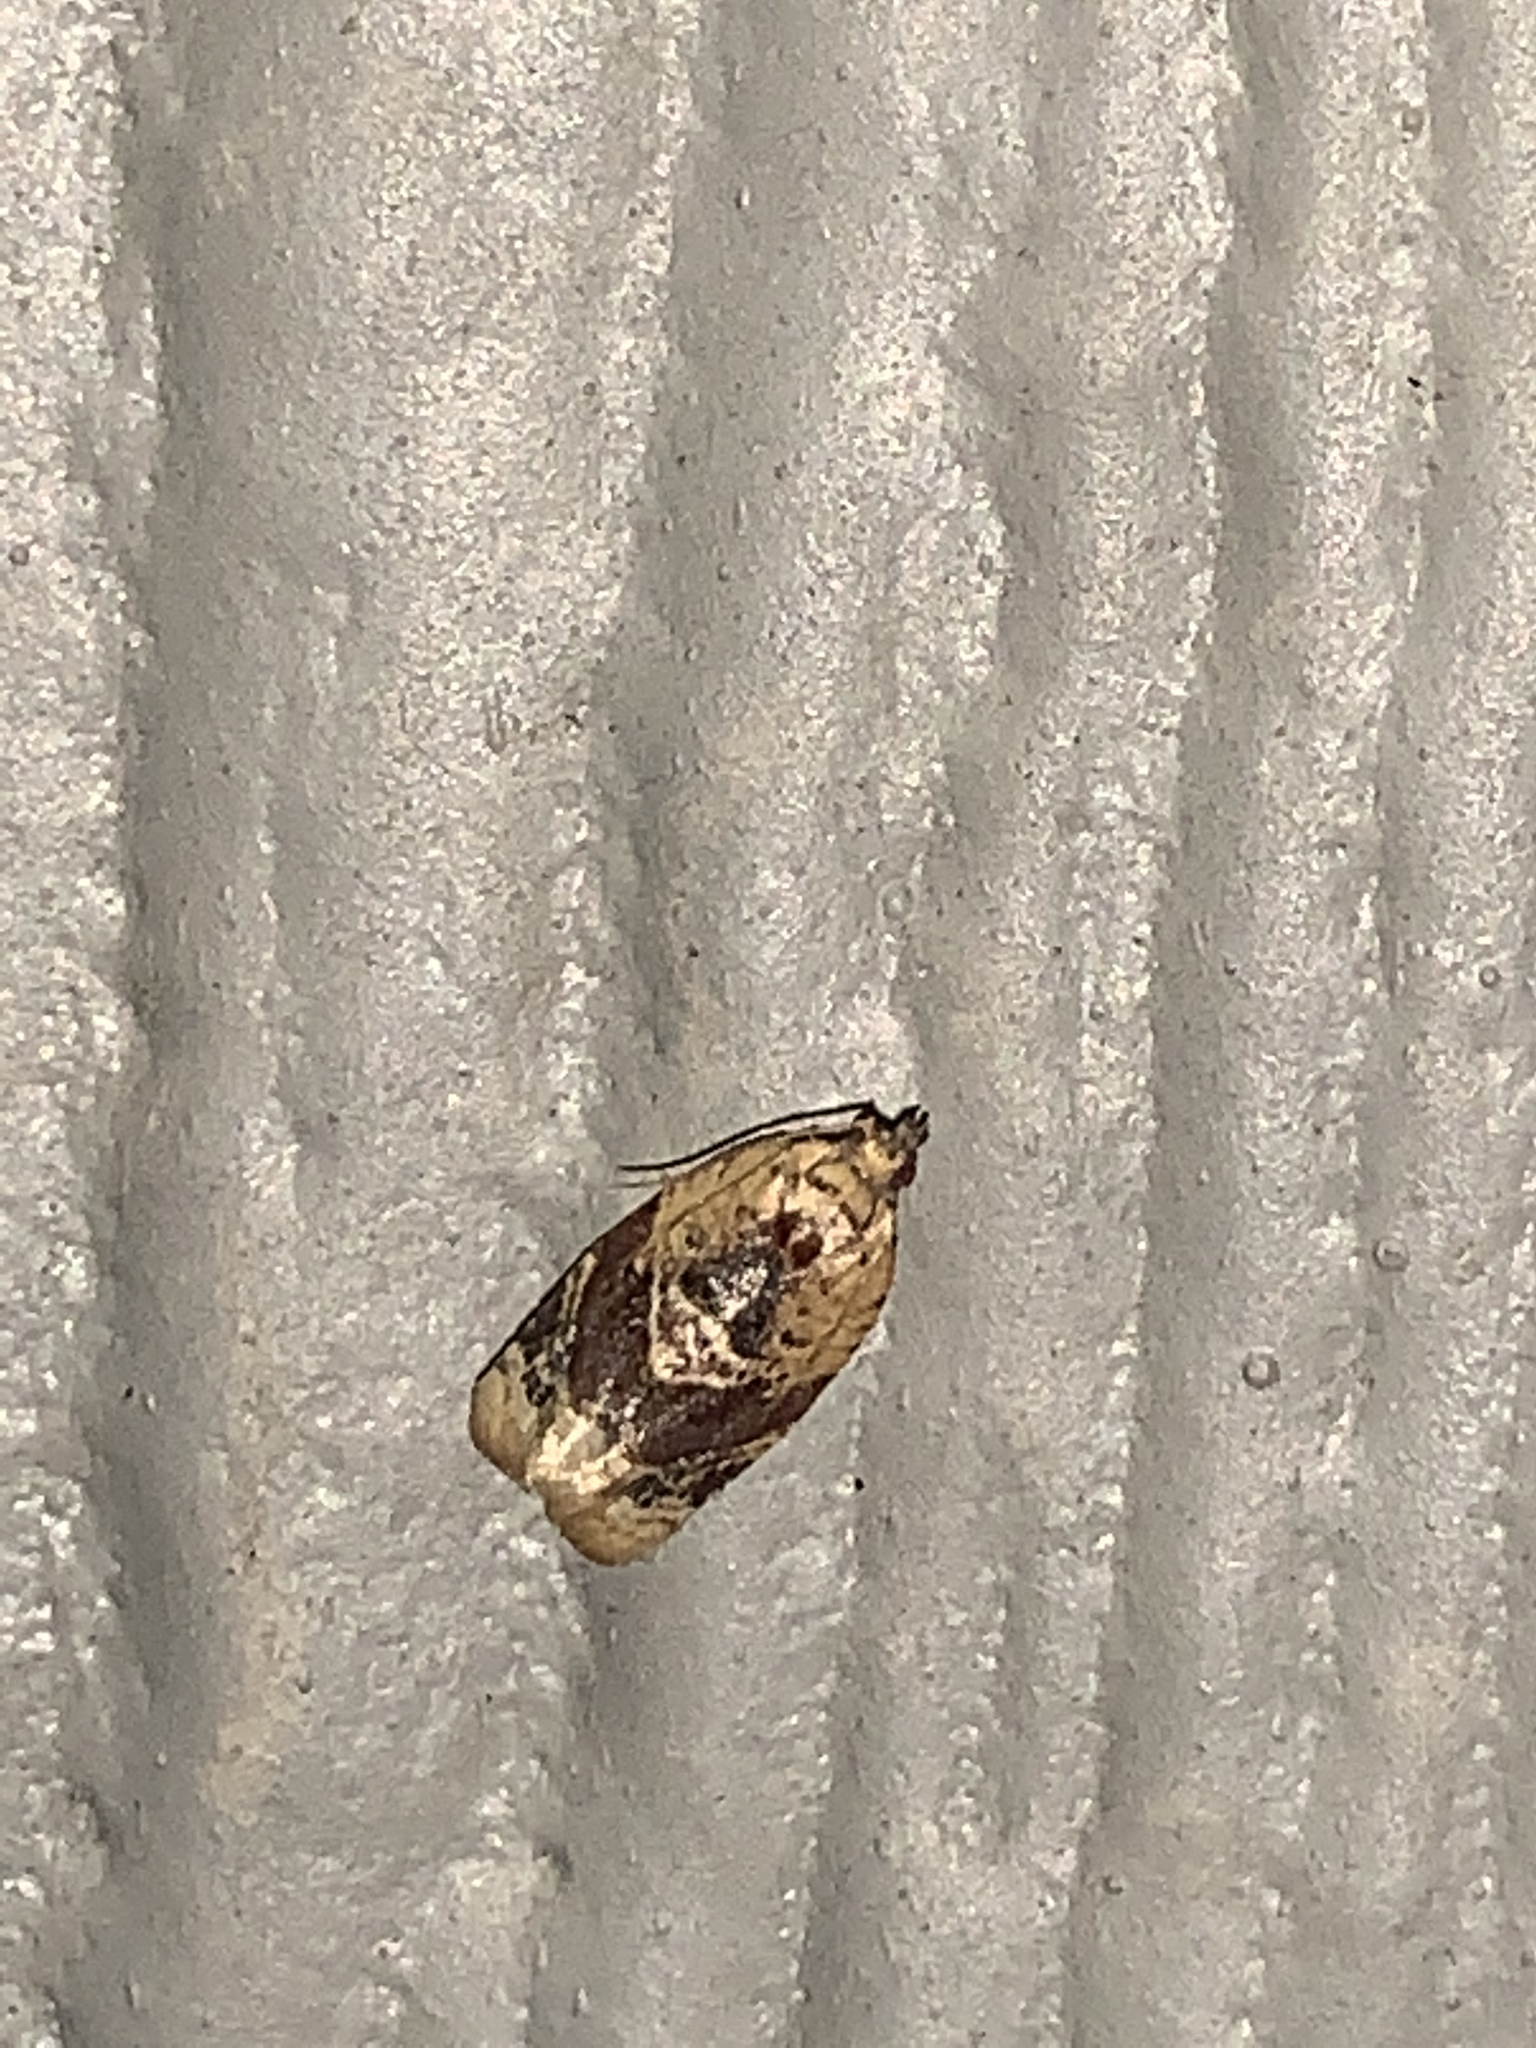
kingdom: Animalia
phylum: Arthropoda
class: Insecta
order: Lepidoptera
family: Tortricidae
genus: Argyrotaenia
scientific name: Argyrotaenia velutinana
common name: Red-banded leafroller moth
